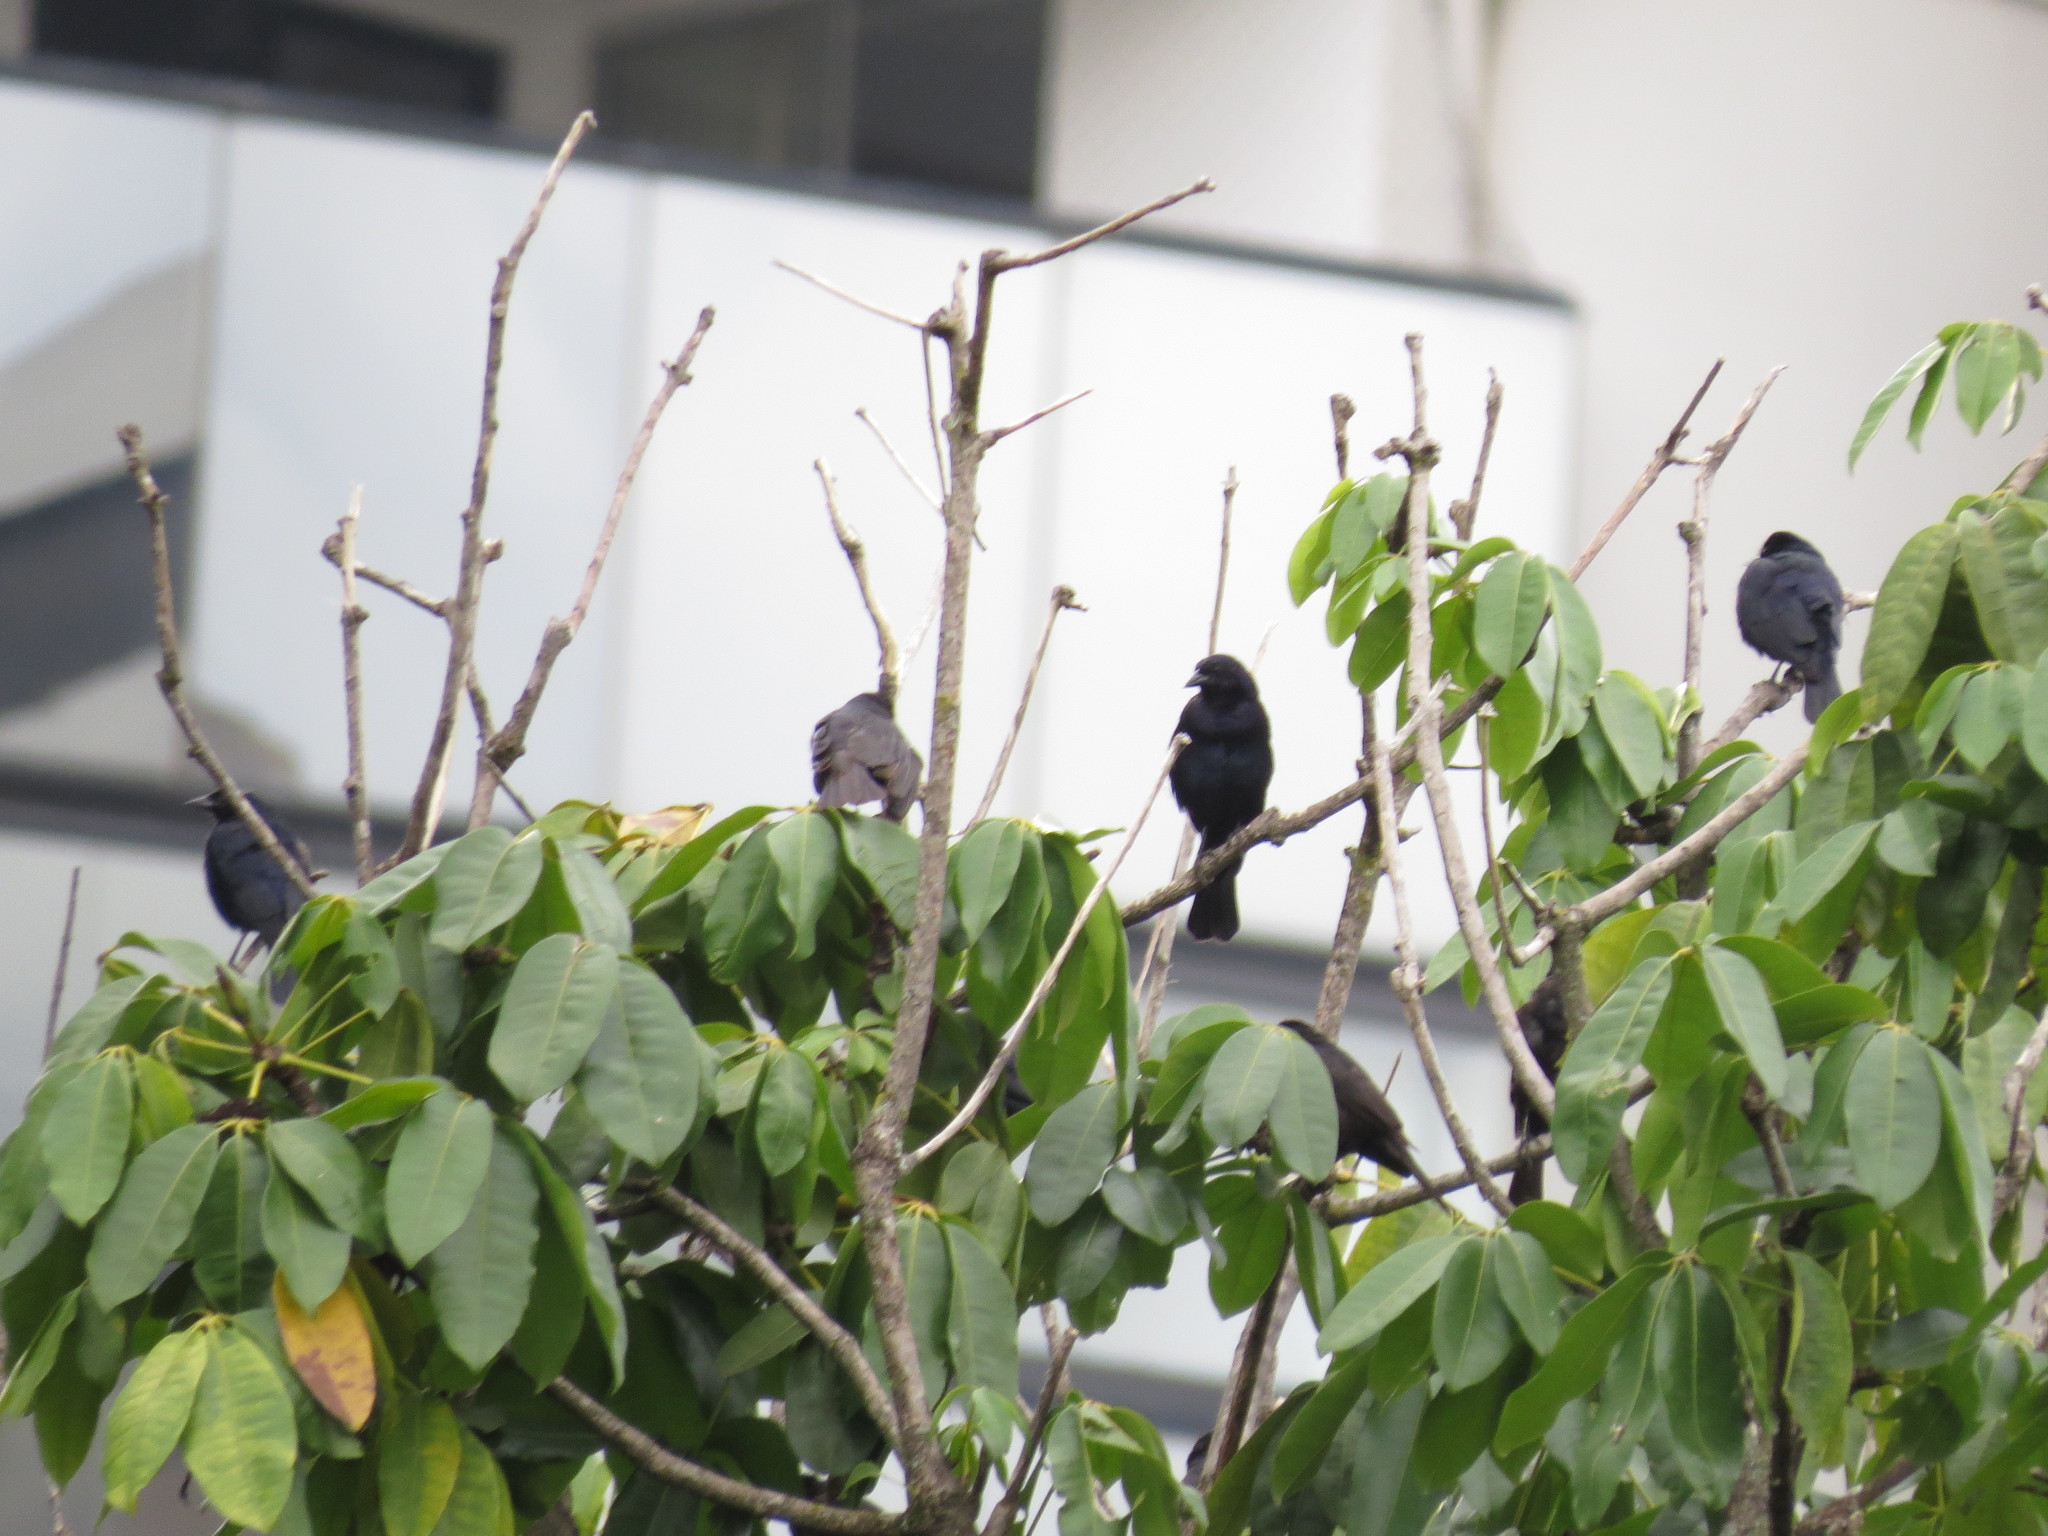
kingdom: Animalia
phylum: Chordata
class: Aves
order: Passeriformes
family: Icteridae
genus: Molothrus
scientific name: Molothrus bonariensis
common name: Shiny cowbird
